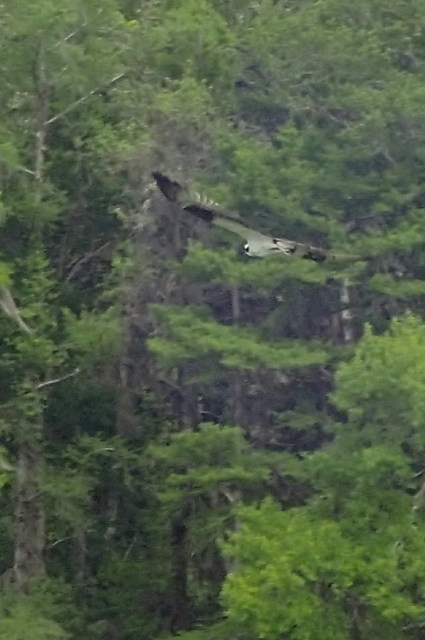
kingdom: Animalia
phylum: Chordata
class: Aves
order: Accipitriformes
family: Pandionidae
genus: Pandion
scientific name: Pandion haliaetus
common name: Osprey
